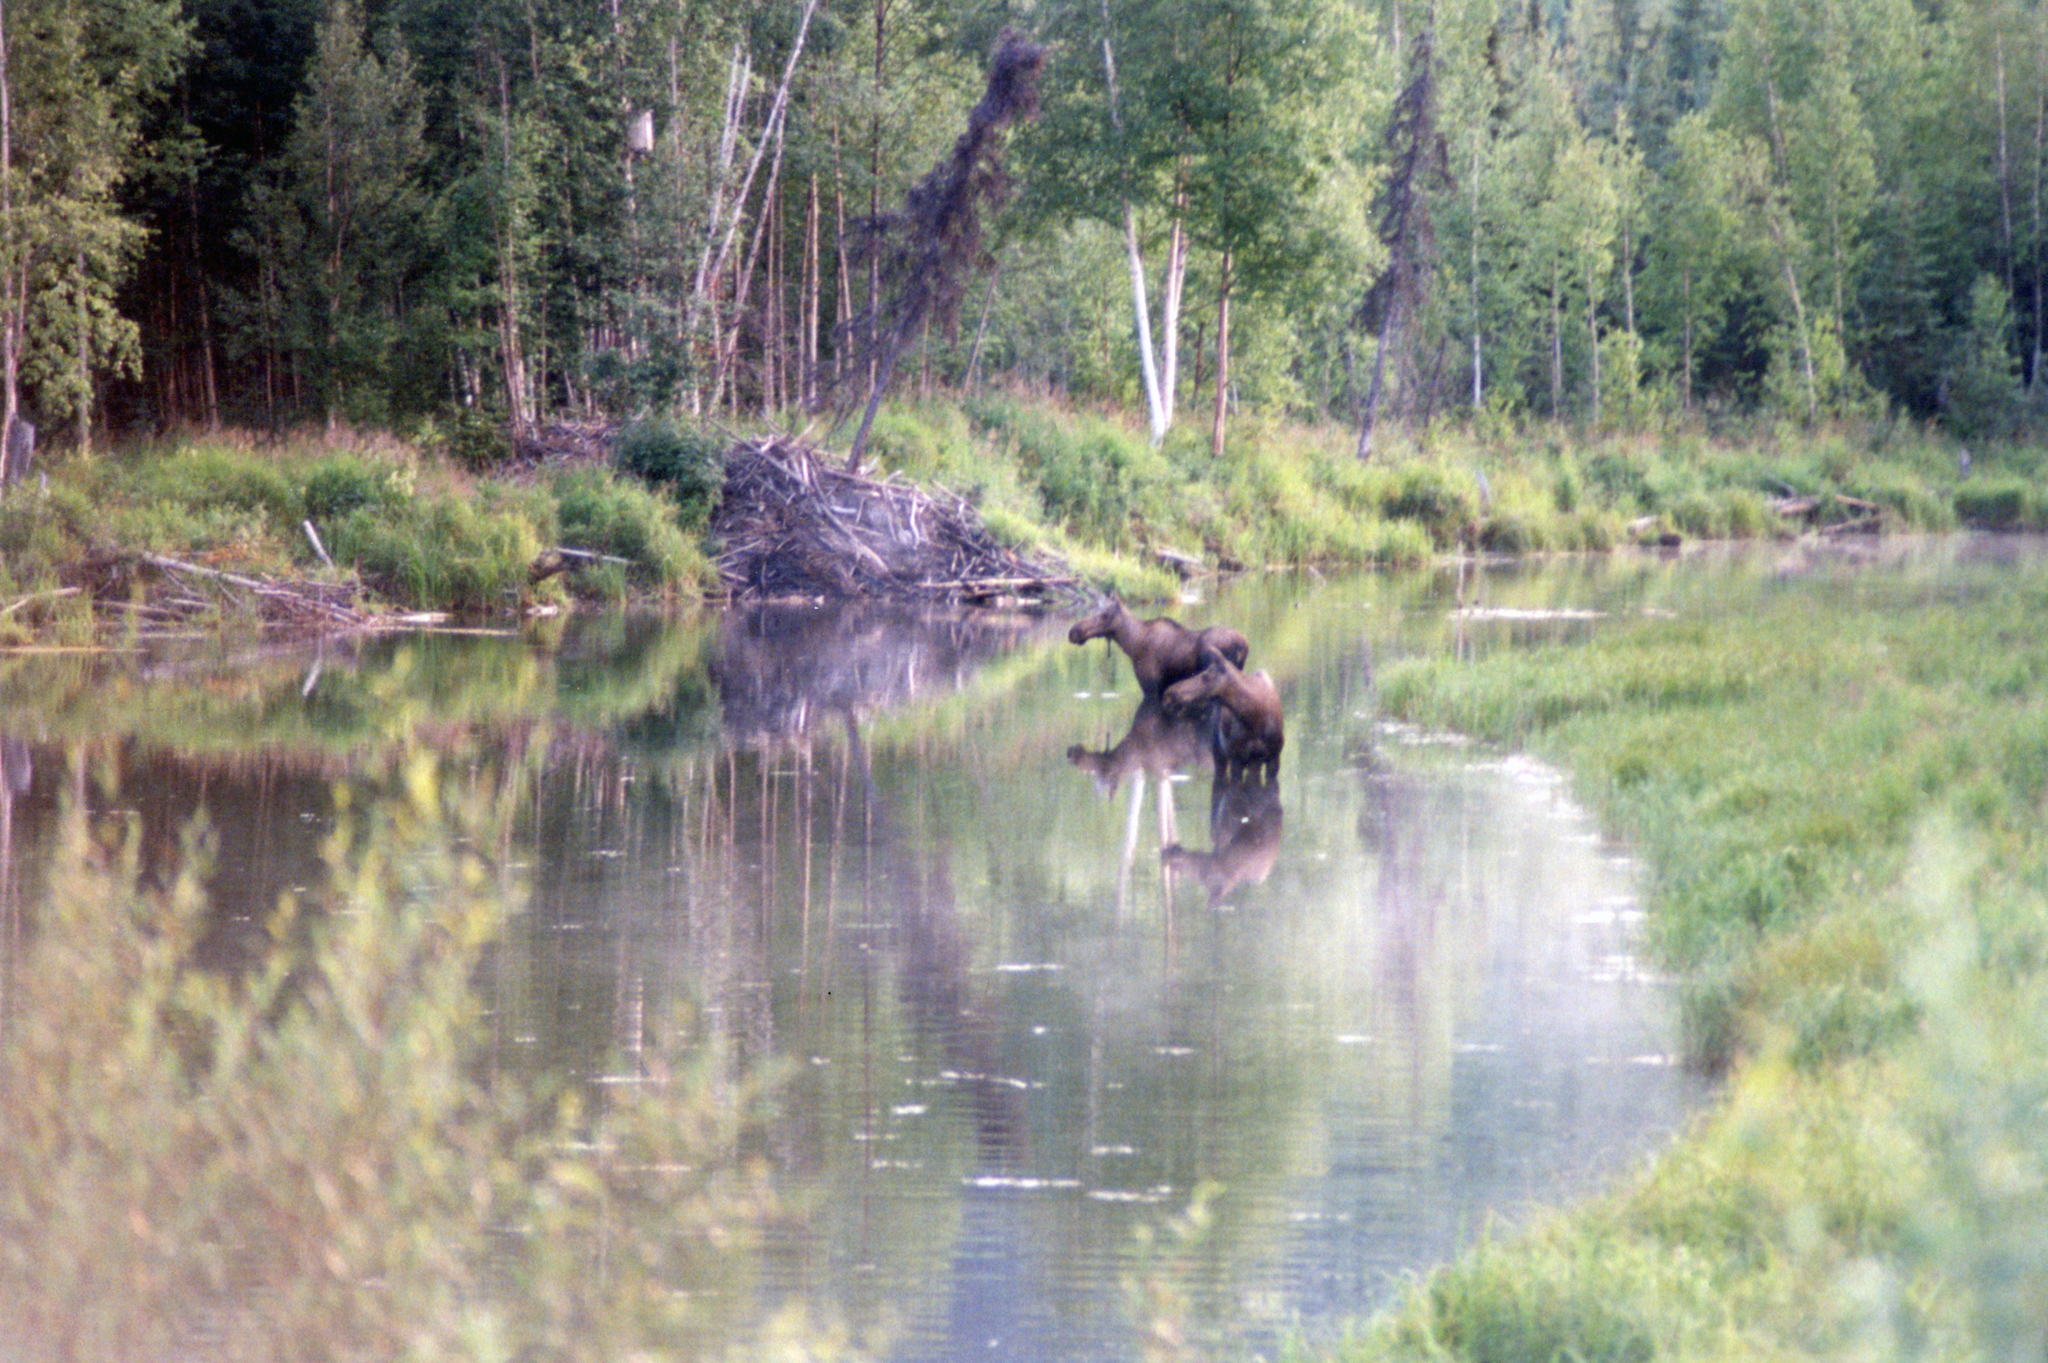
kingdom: Animalia
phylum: Chordata
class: Mammalia
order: Artiodactyla
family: Cervidae
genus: Alces
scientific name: Alces alces
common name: Moose
